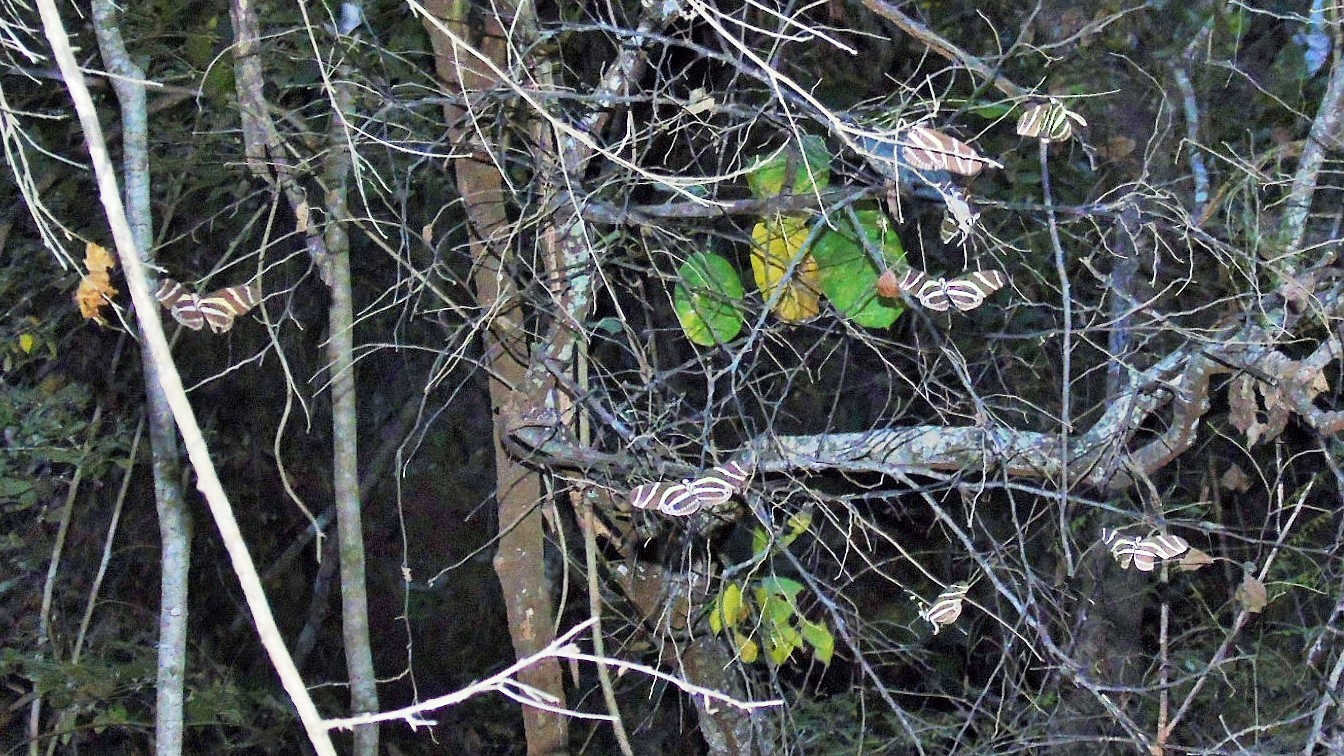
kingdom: Animalia
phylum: Arthropoda
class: Insecta
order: Lepidoptera
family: Nymphalidae
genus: Heliconius
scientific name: Heliconius charithonia
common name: Zebra long wing
